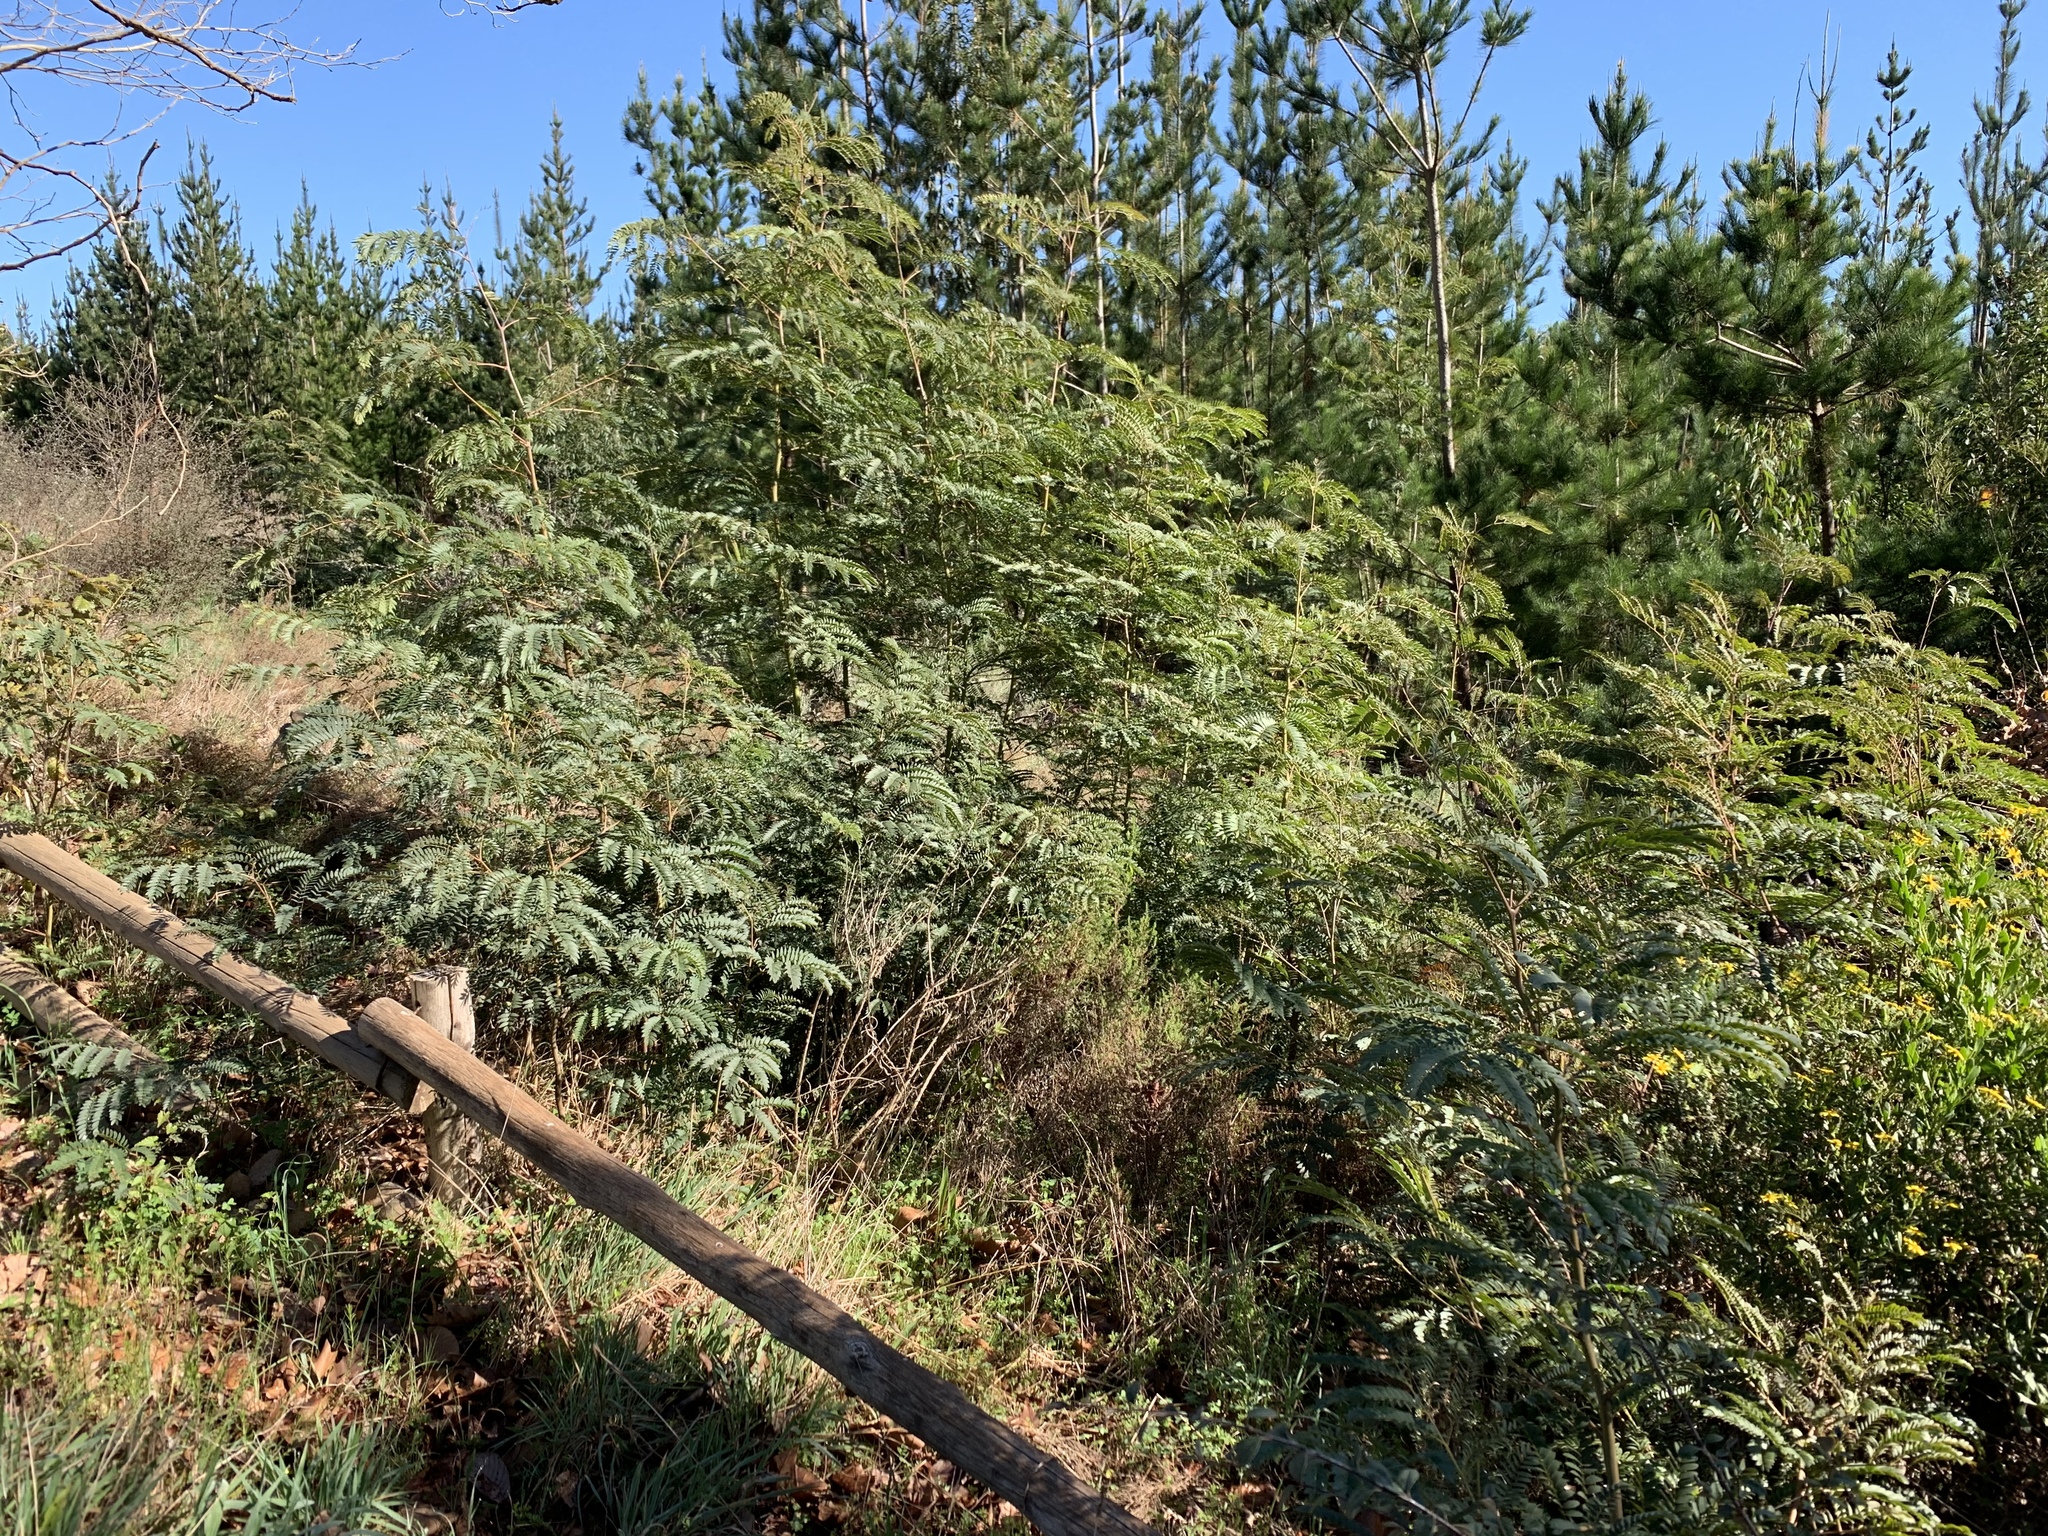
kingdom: Plantae
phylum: Tracheophyta
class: Magnoliopsida
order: Fabales
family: Fabaceae
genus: Acacia
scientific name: Acacia elata
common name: Cedar wattle
